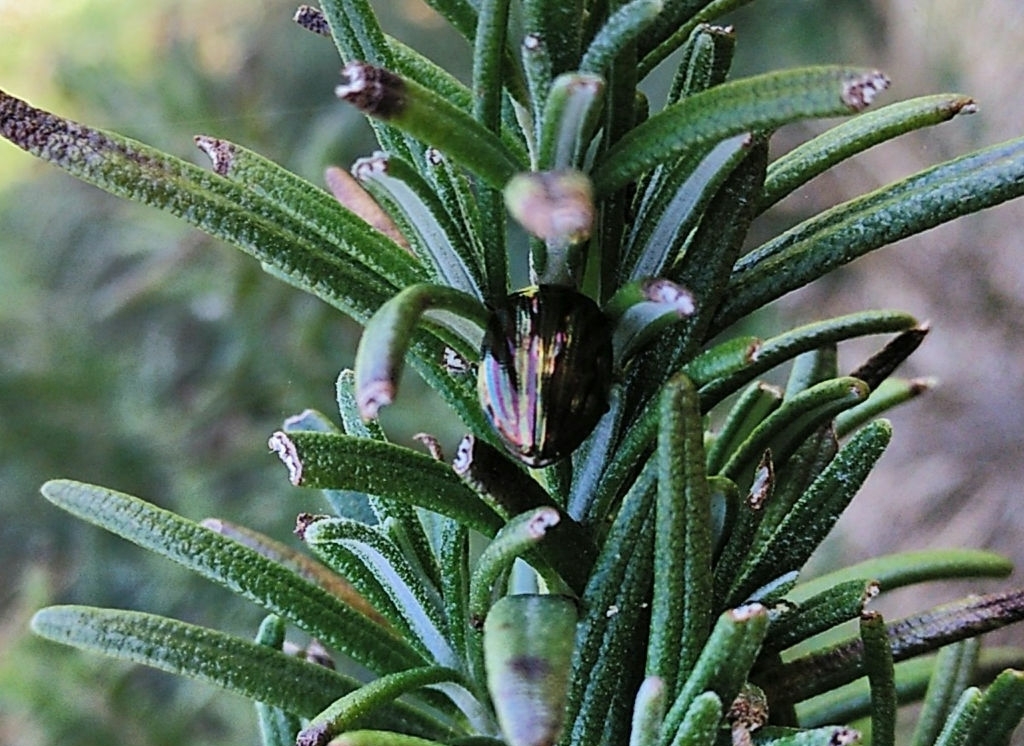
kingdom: Animalia
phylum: Arthropoda
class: Insecta
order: Coleoptera
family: Chrysomelidae
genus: Chrysolina
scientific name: Chrysolina americana
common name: Rosemary beetle
